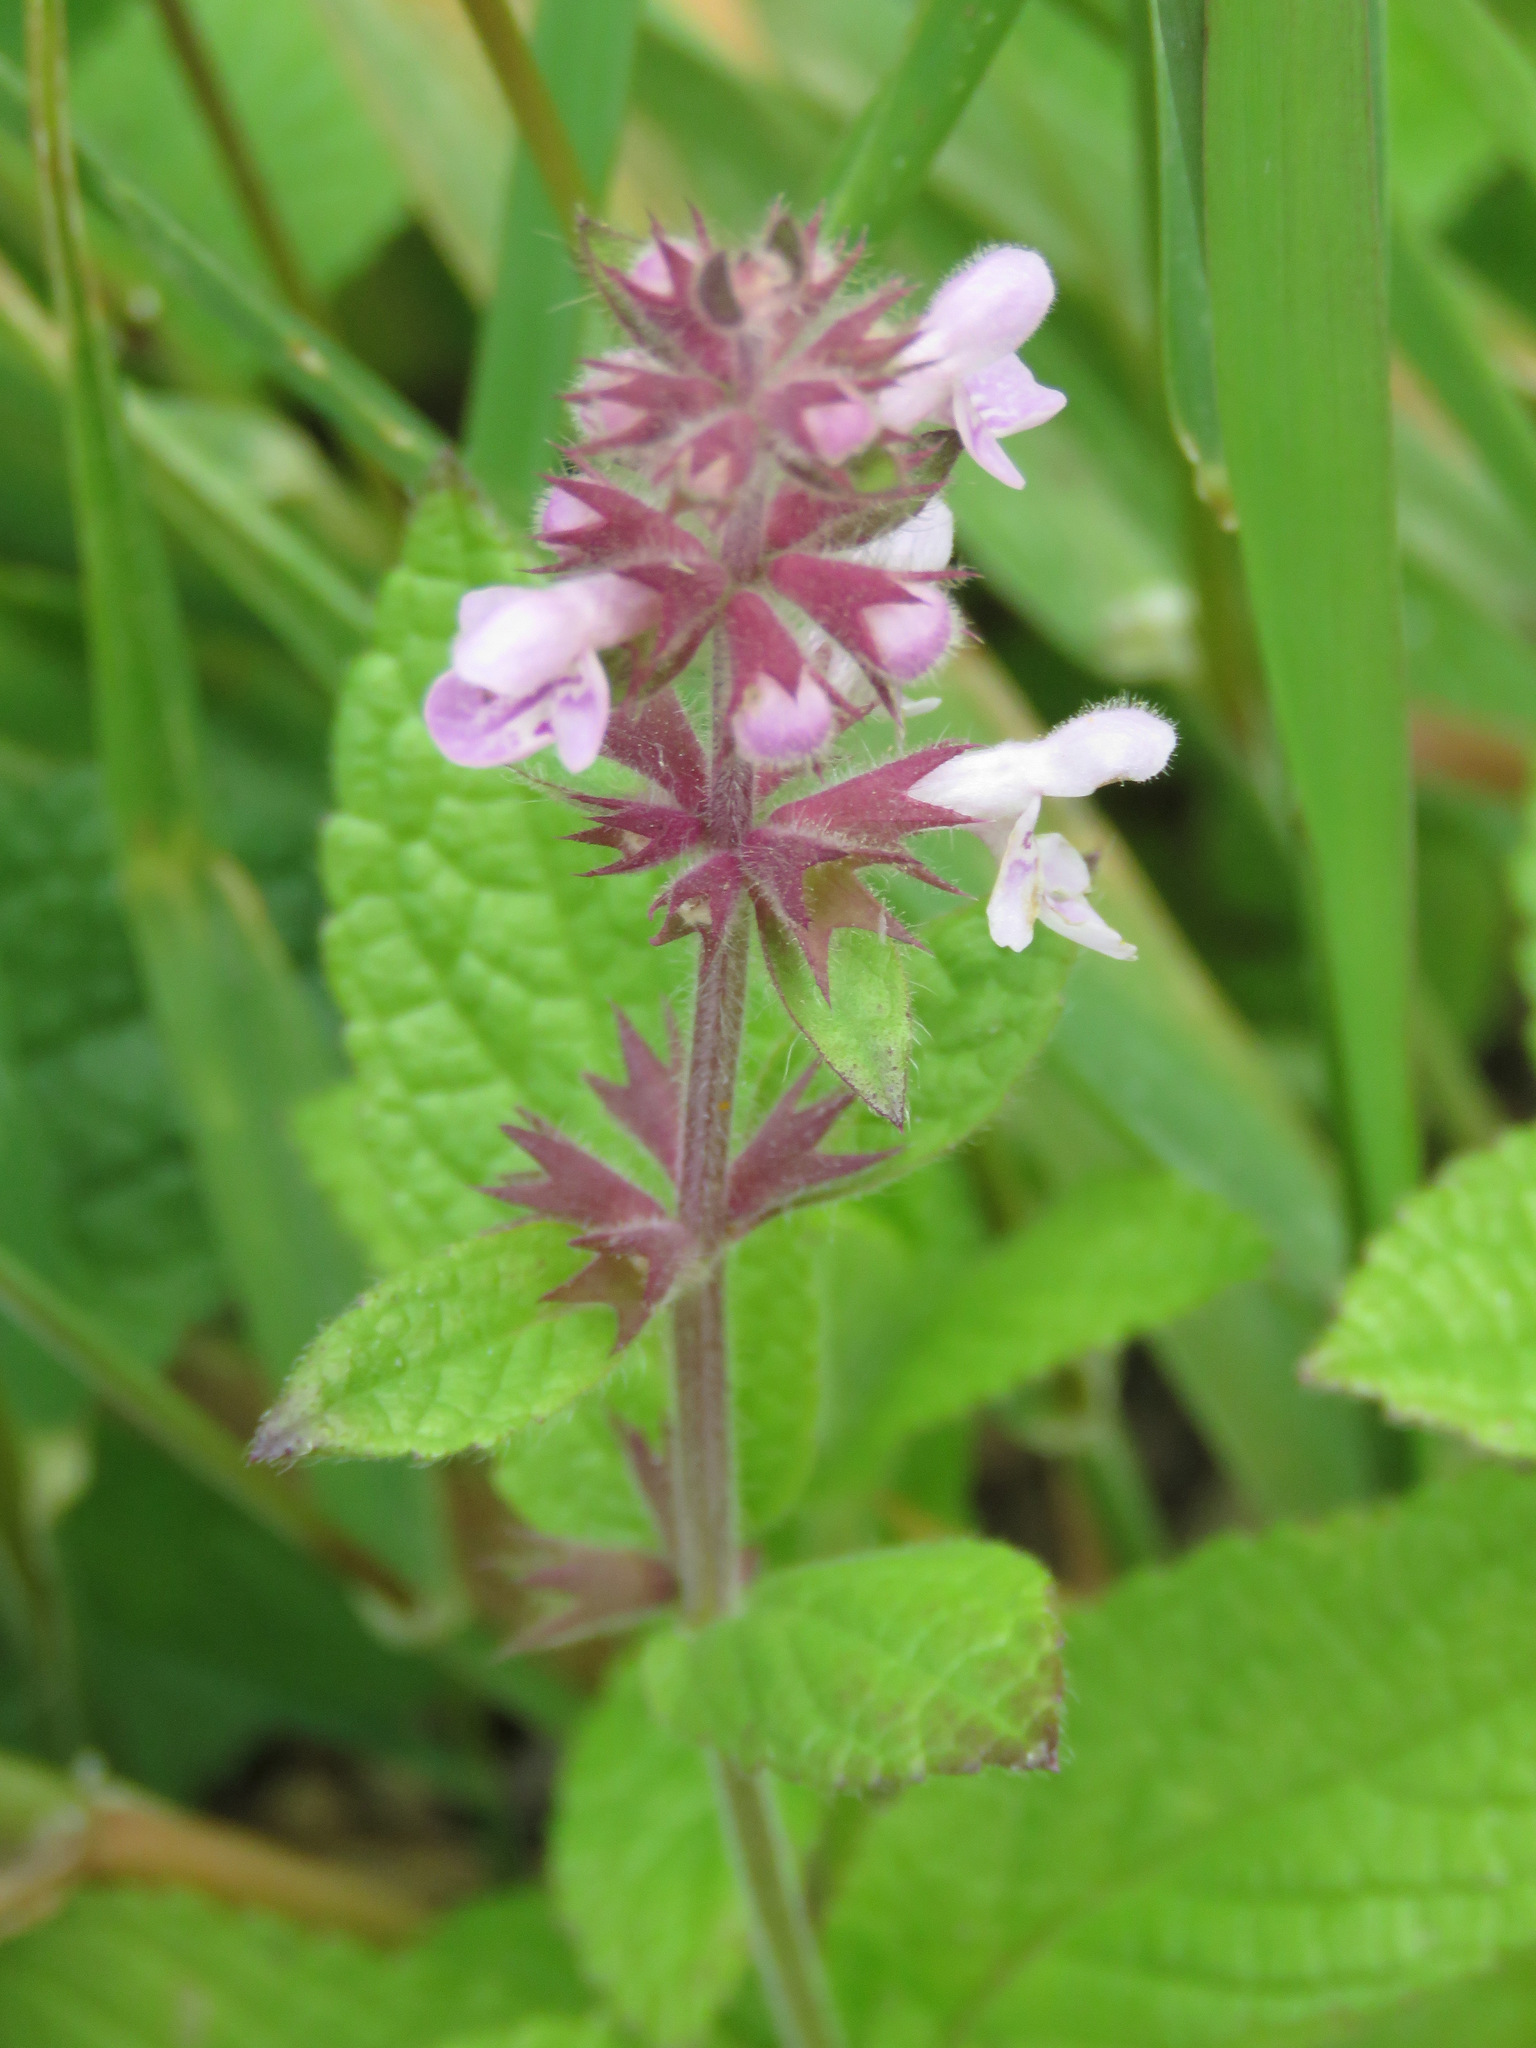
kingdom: Plantae
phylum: Tracheophyta
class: Magnoliopsida
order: Lamiales
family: Lamiaceae
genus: Stachys
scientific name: Stachys pilosa
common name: Hairy hedge-nettle
